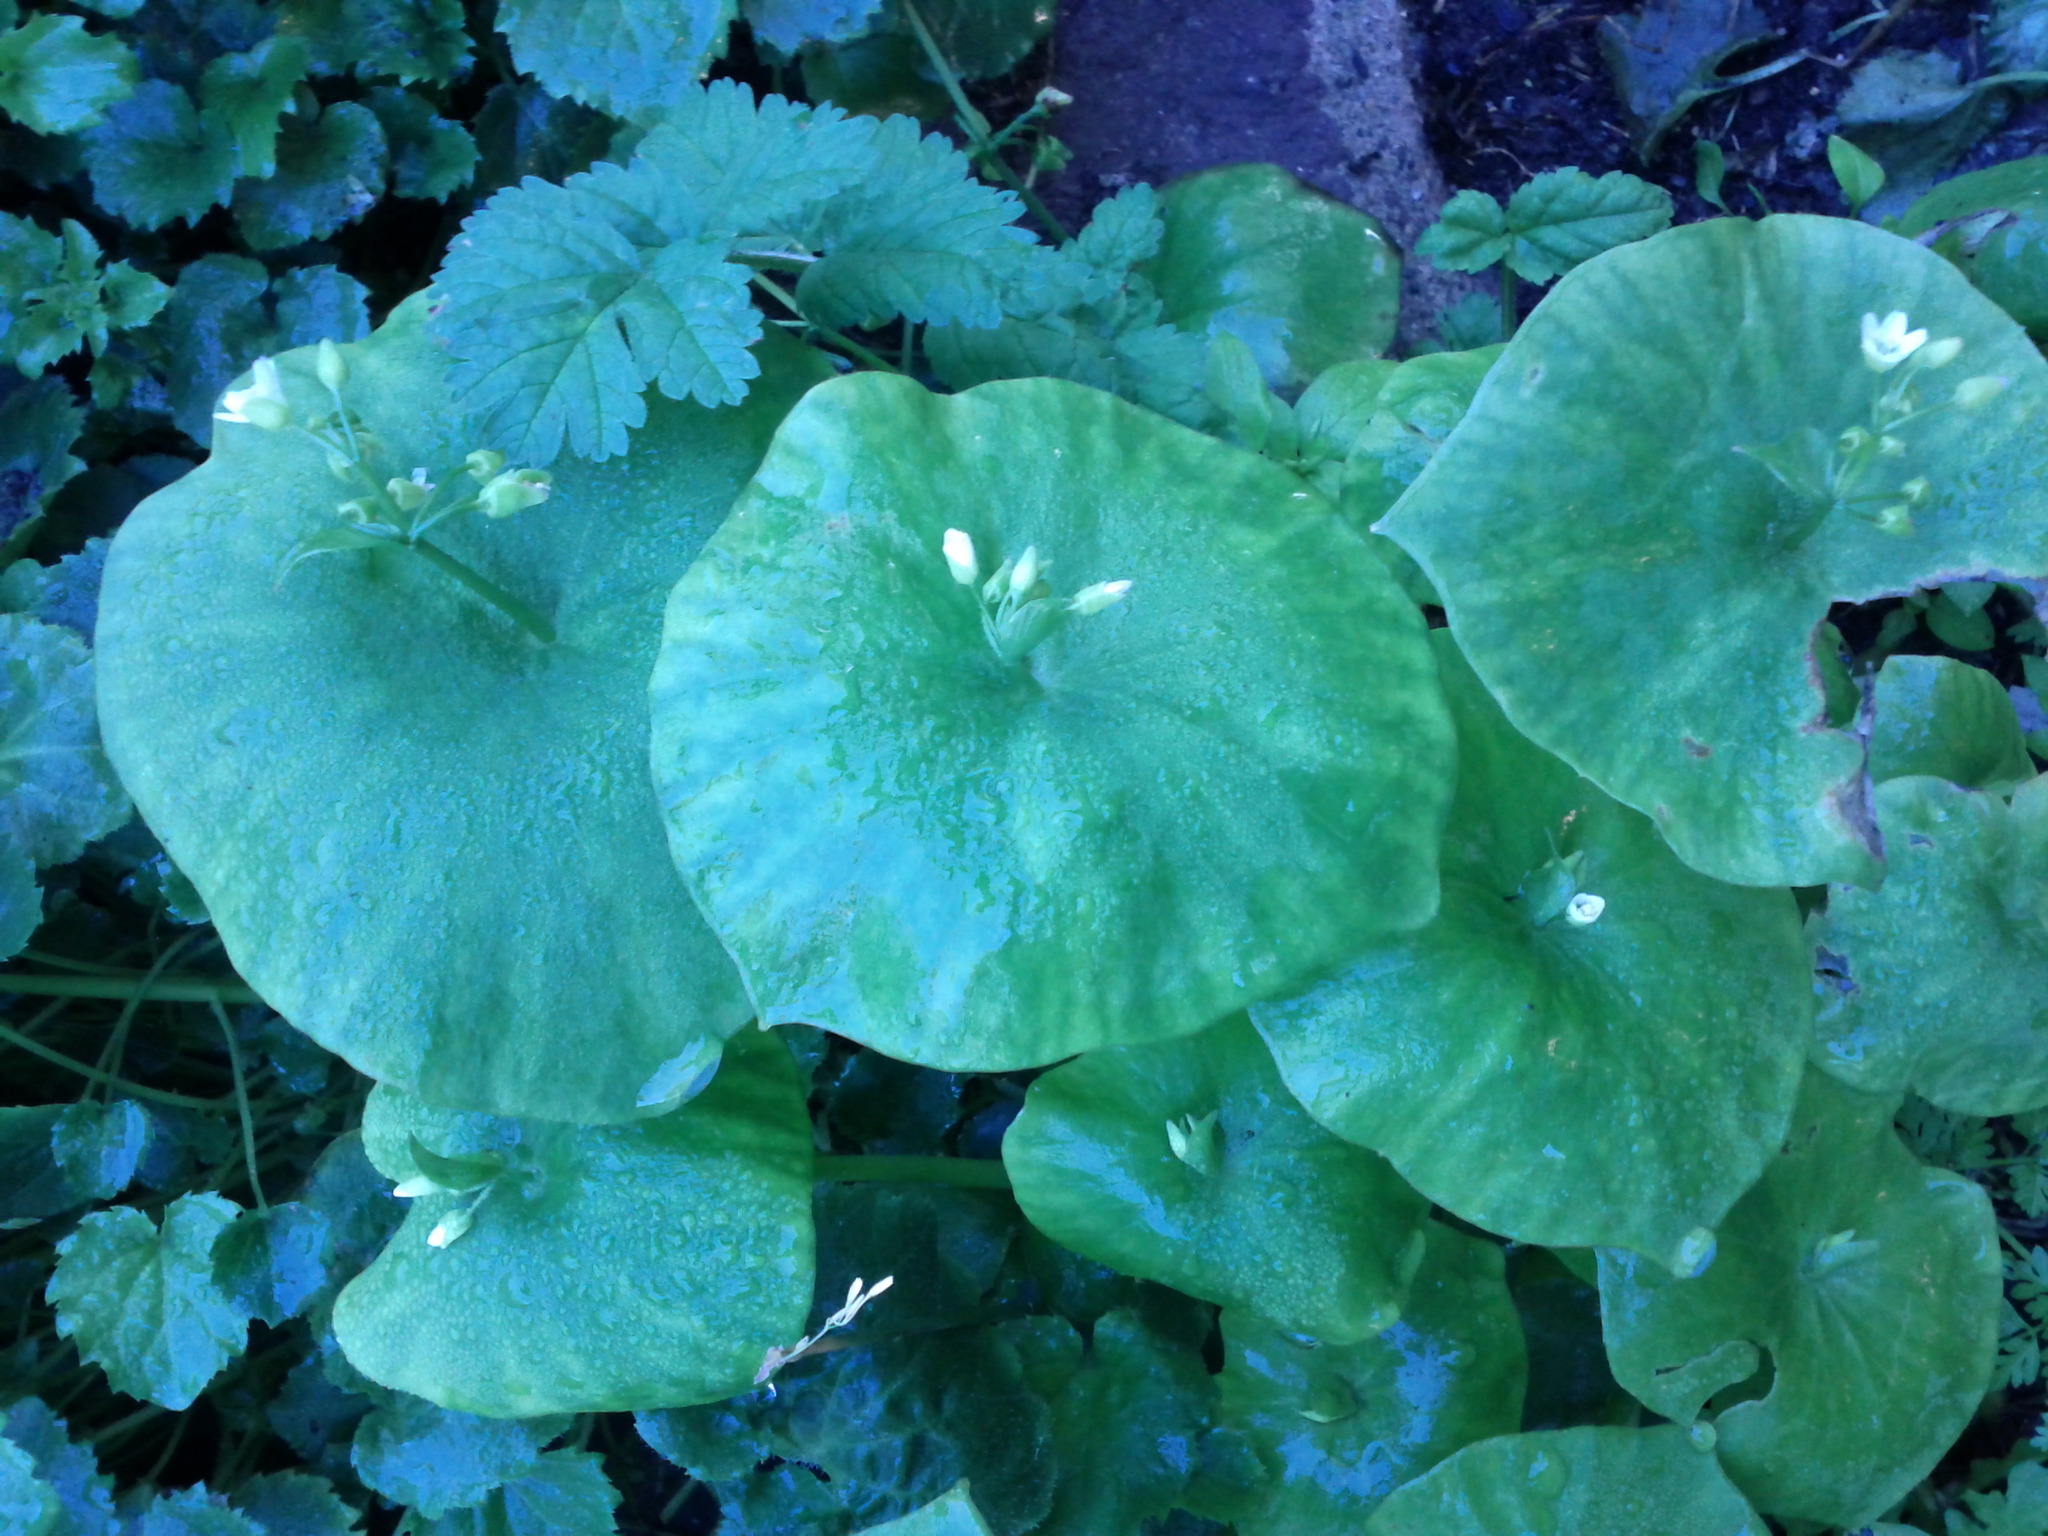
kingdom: Plantae
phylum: Tracheophyta
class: Magnoliopsida
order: Caryophyllales
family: Montiaceae
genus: Claytonia
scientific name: Claytonia perfoliata
